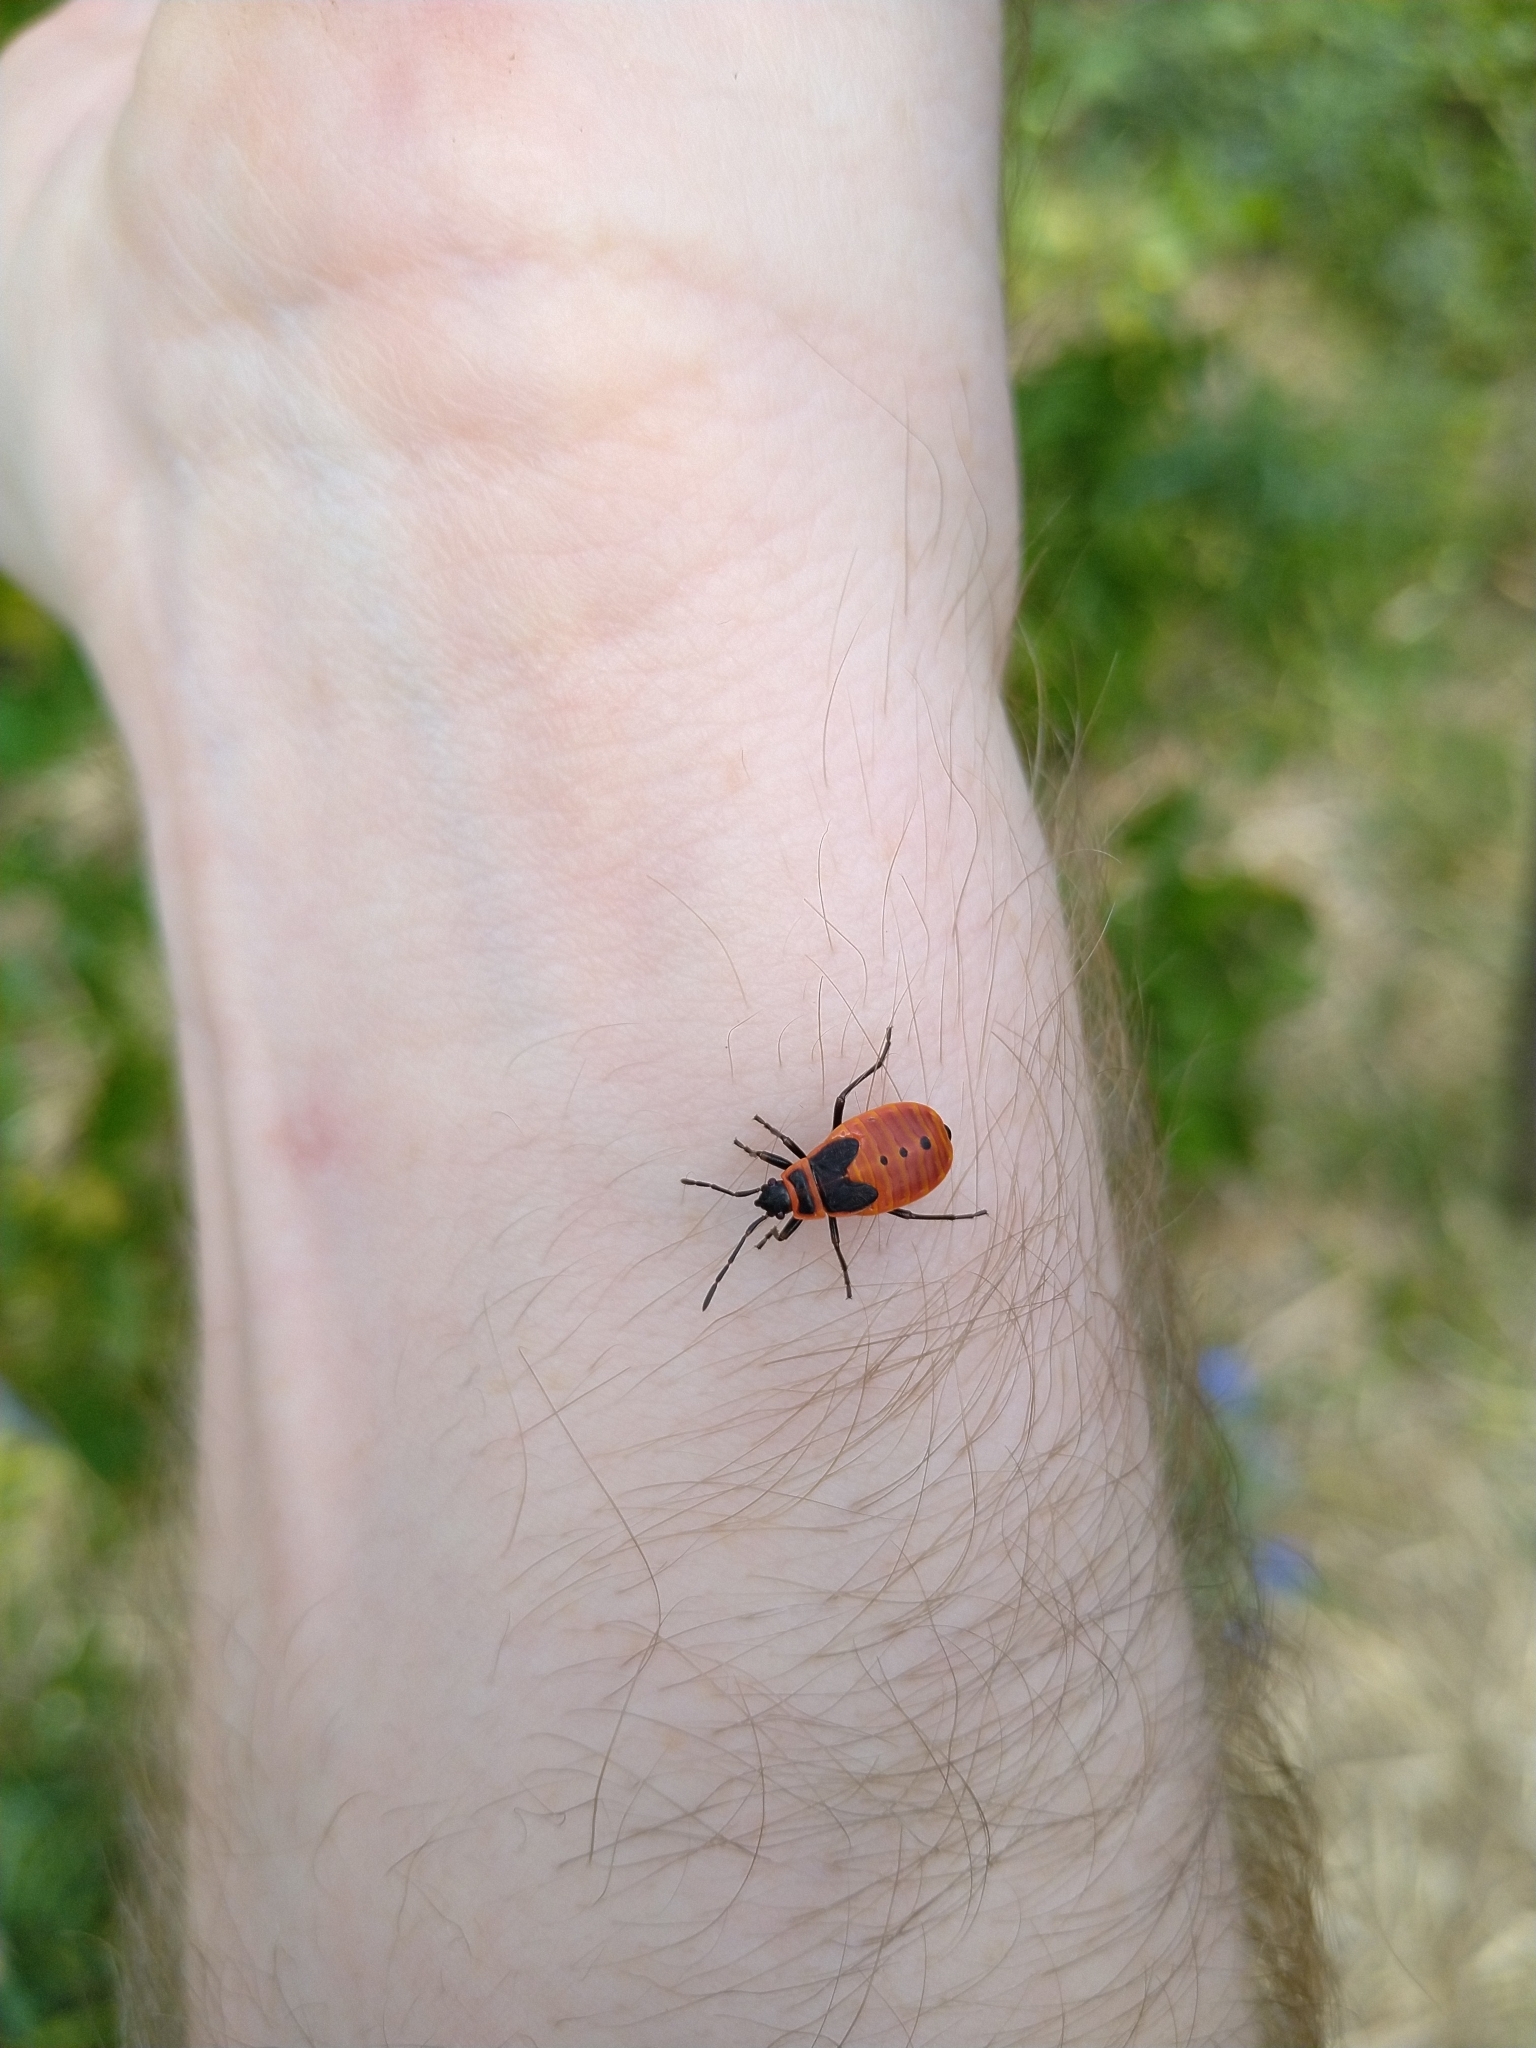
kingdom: Animalia
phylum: Arthropoda
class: Insecta
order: Hemiptera
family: Pyrrhocoridae
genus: Pyrrhocoris
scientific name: Pyrrhocoris apterus
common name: Firebug
